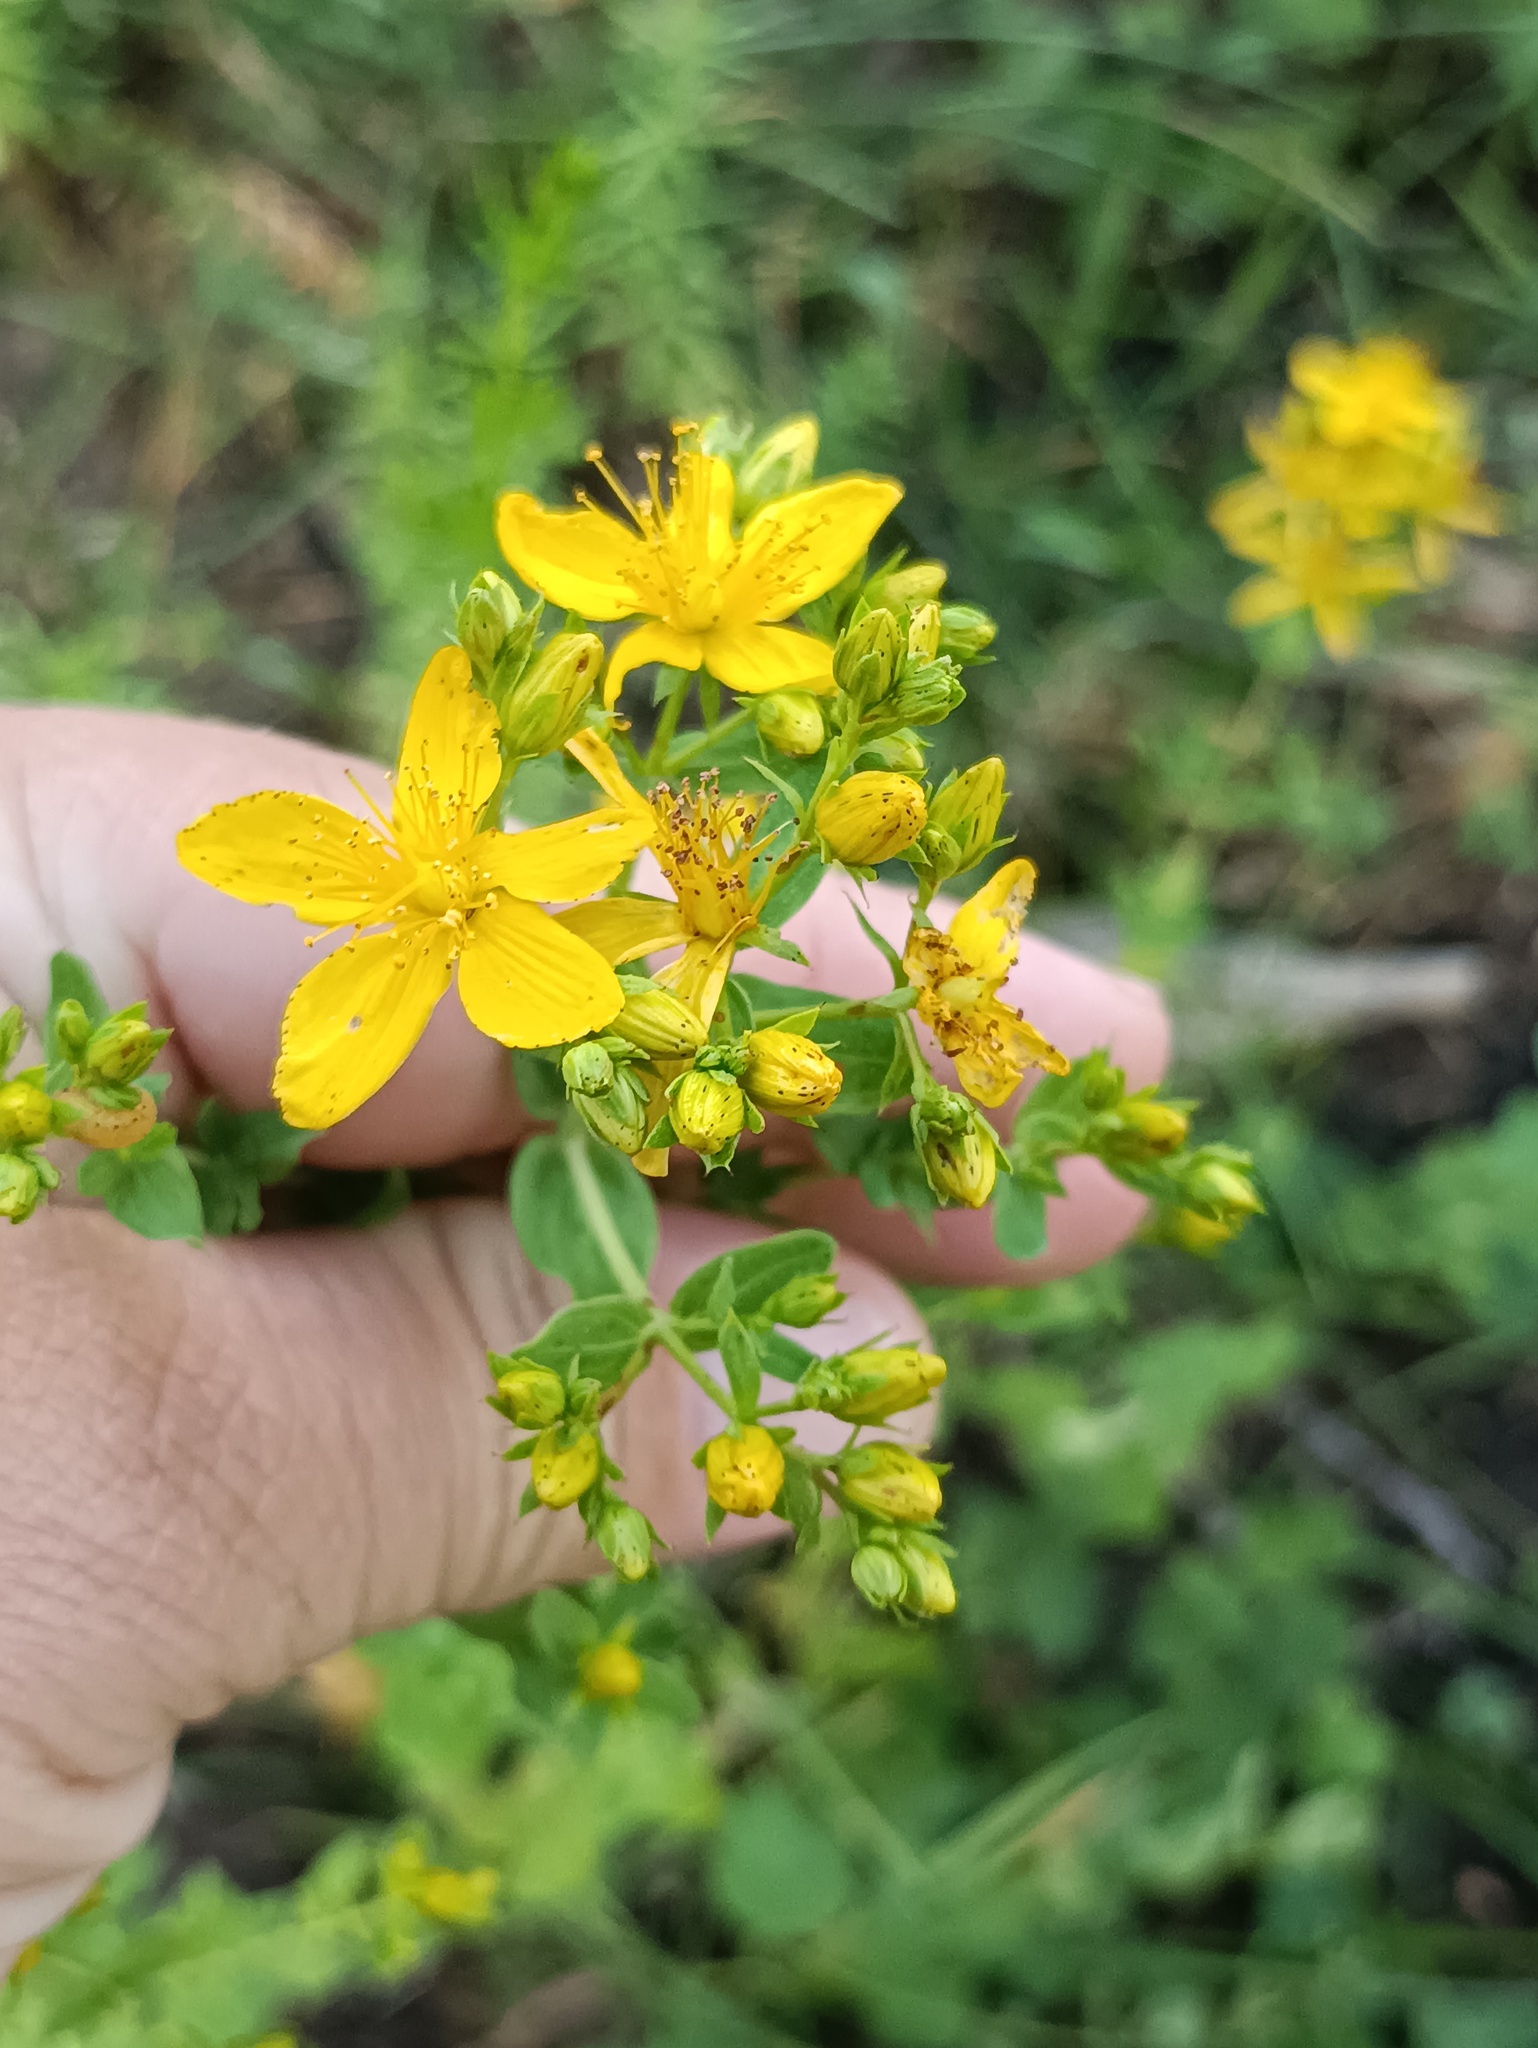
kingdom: Plantae
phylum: Tracheophyta
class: Magnoliopsida
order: Malpighiales
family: Hypericaceae
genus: Hypericum
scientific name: Hypericum perforatum
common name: Common st. johnswort
